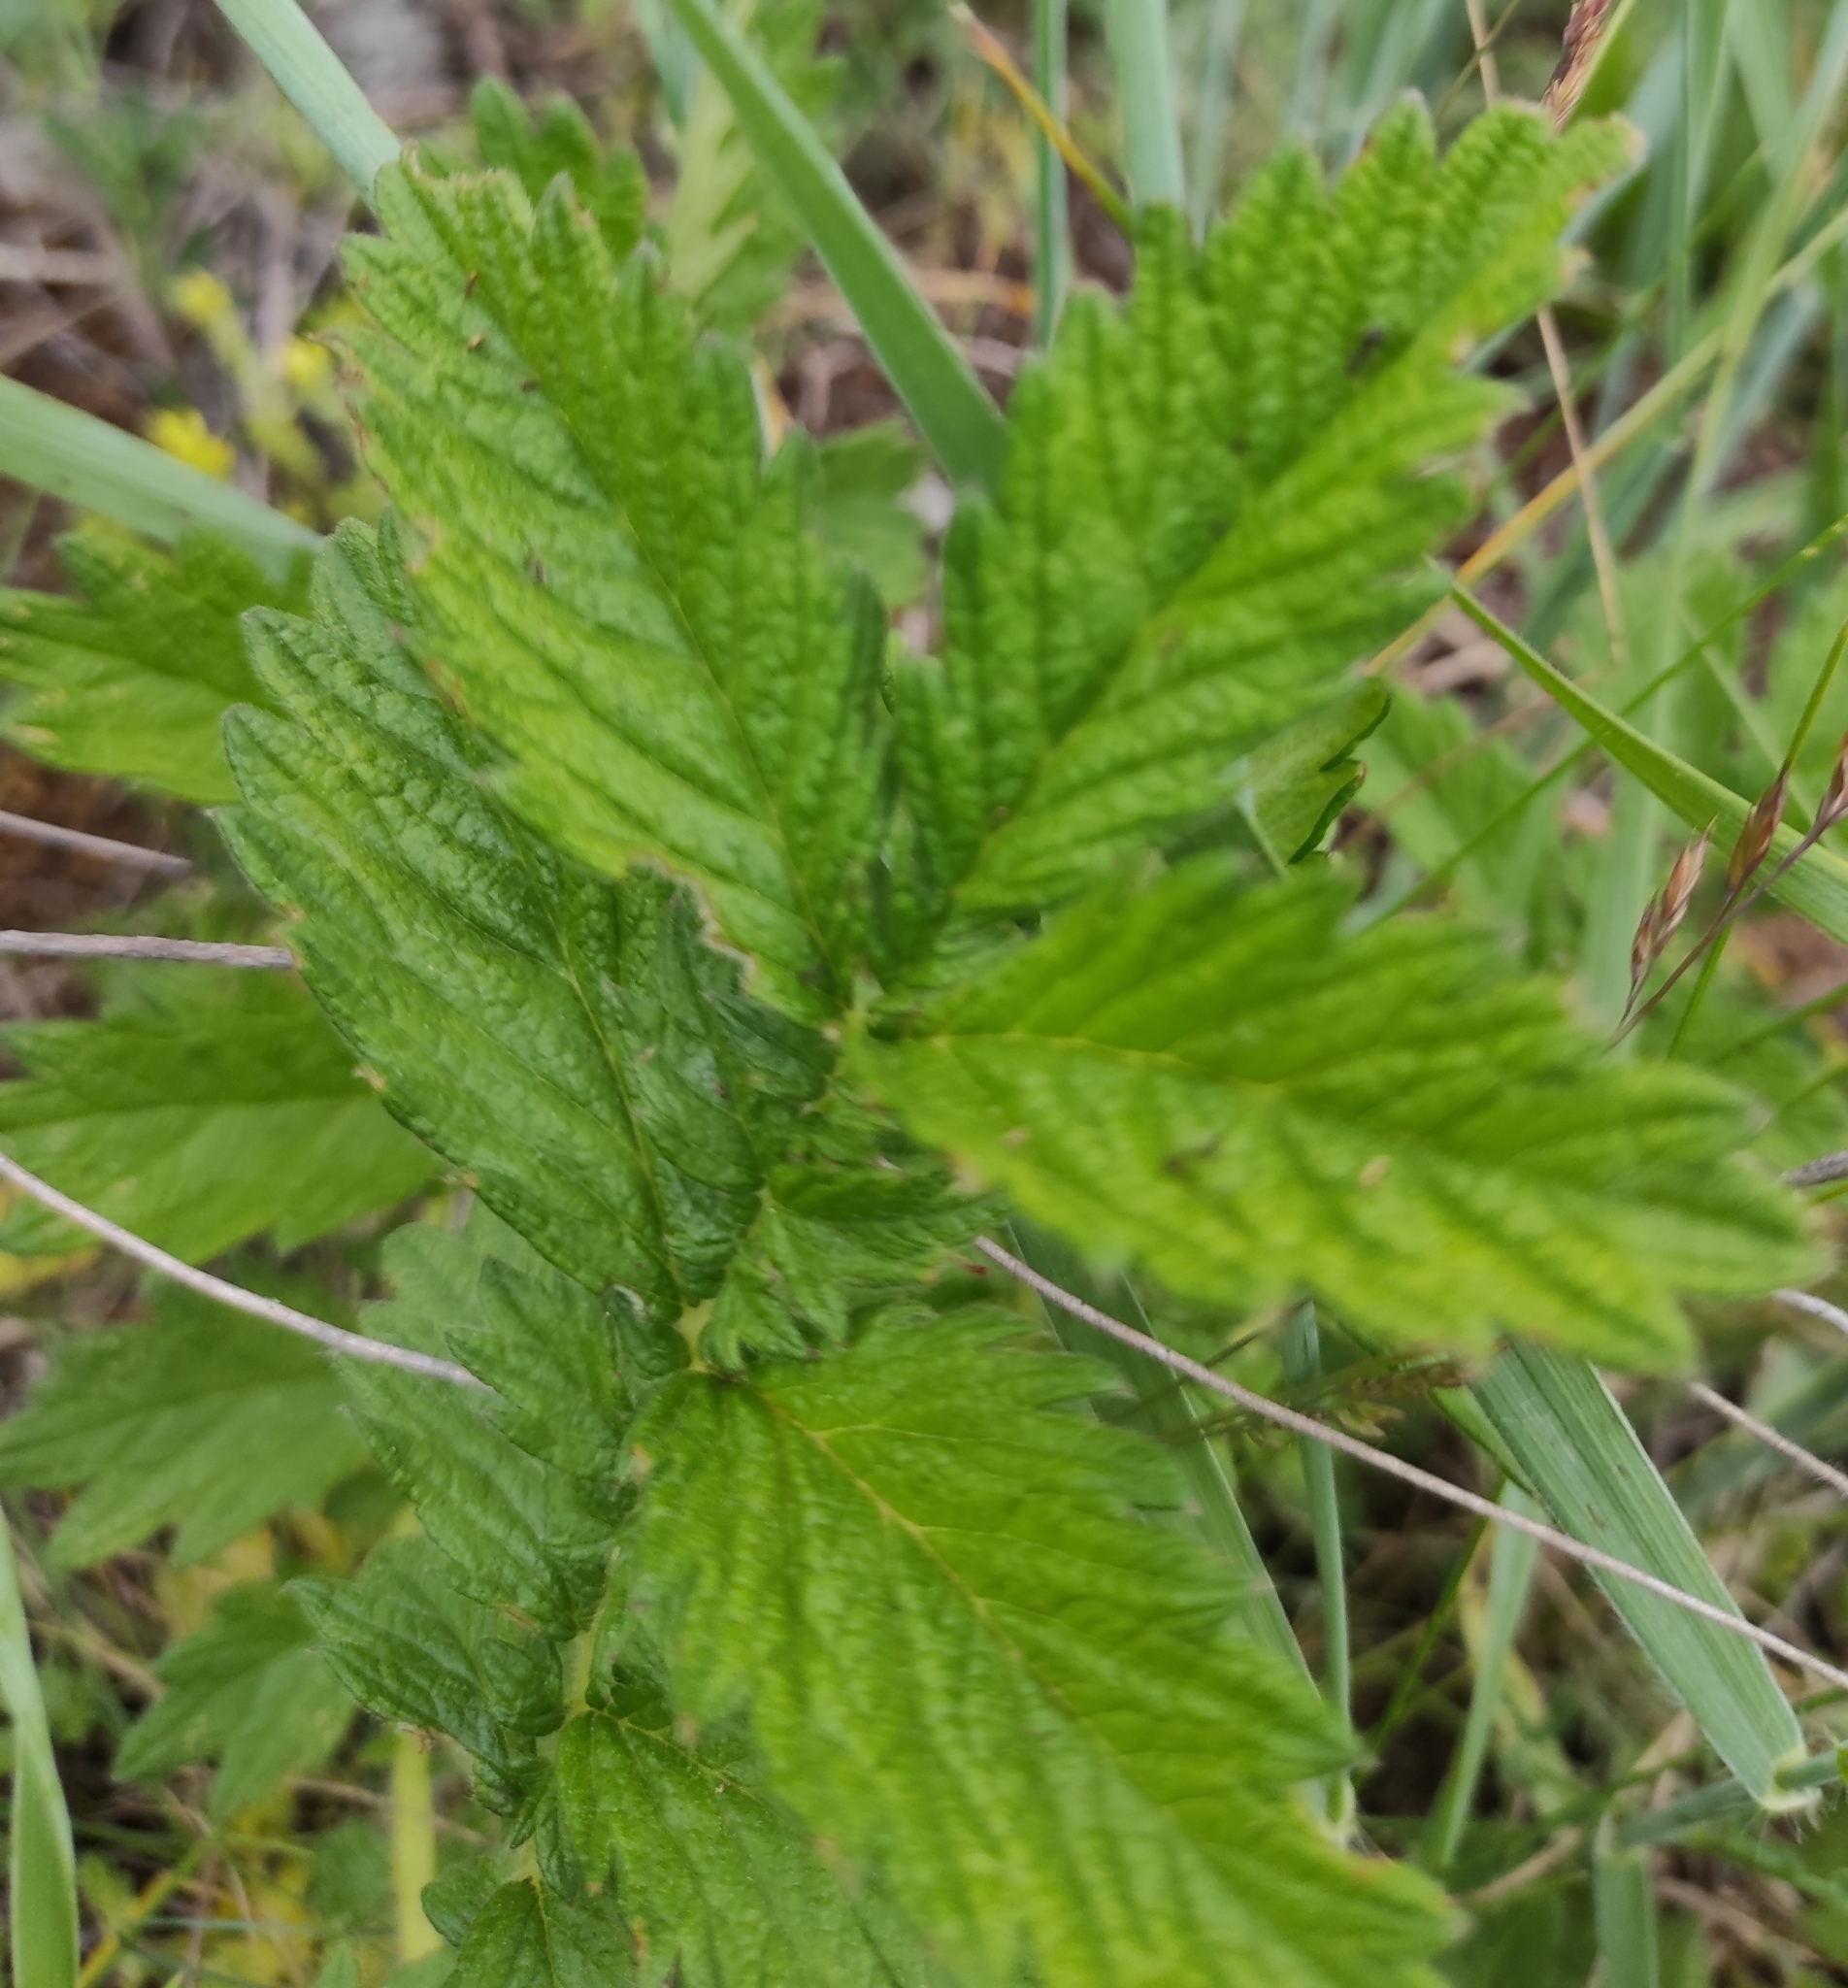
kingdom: Plantae
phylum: Tracheophyta
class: Magnoliopsida
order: Rosales
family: Rosaceae
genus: Agrimonia
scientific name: Agrimonia eupatoria
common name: Agrimony
